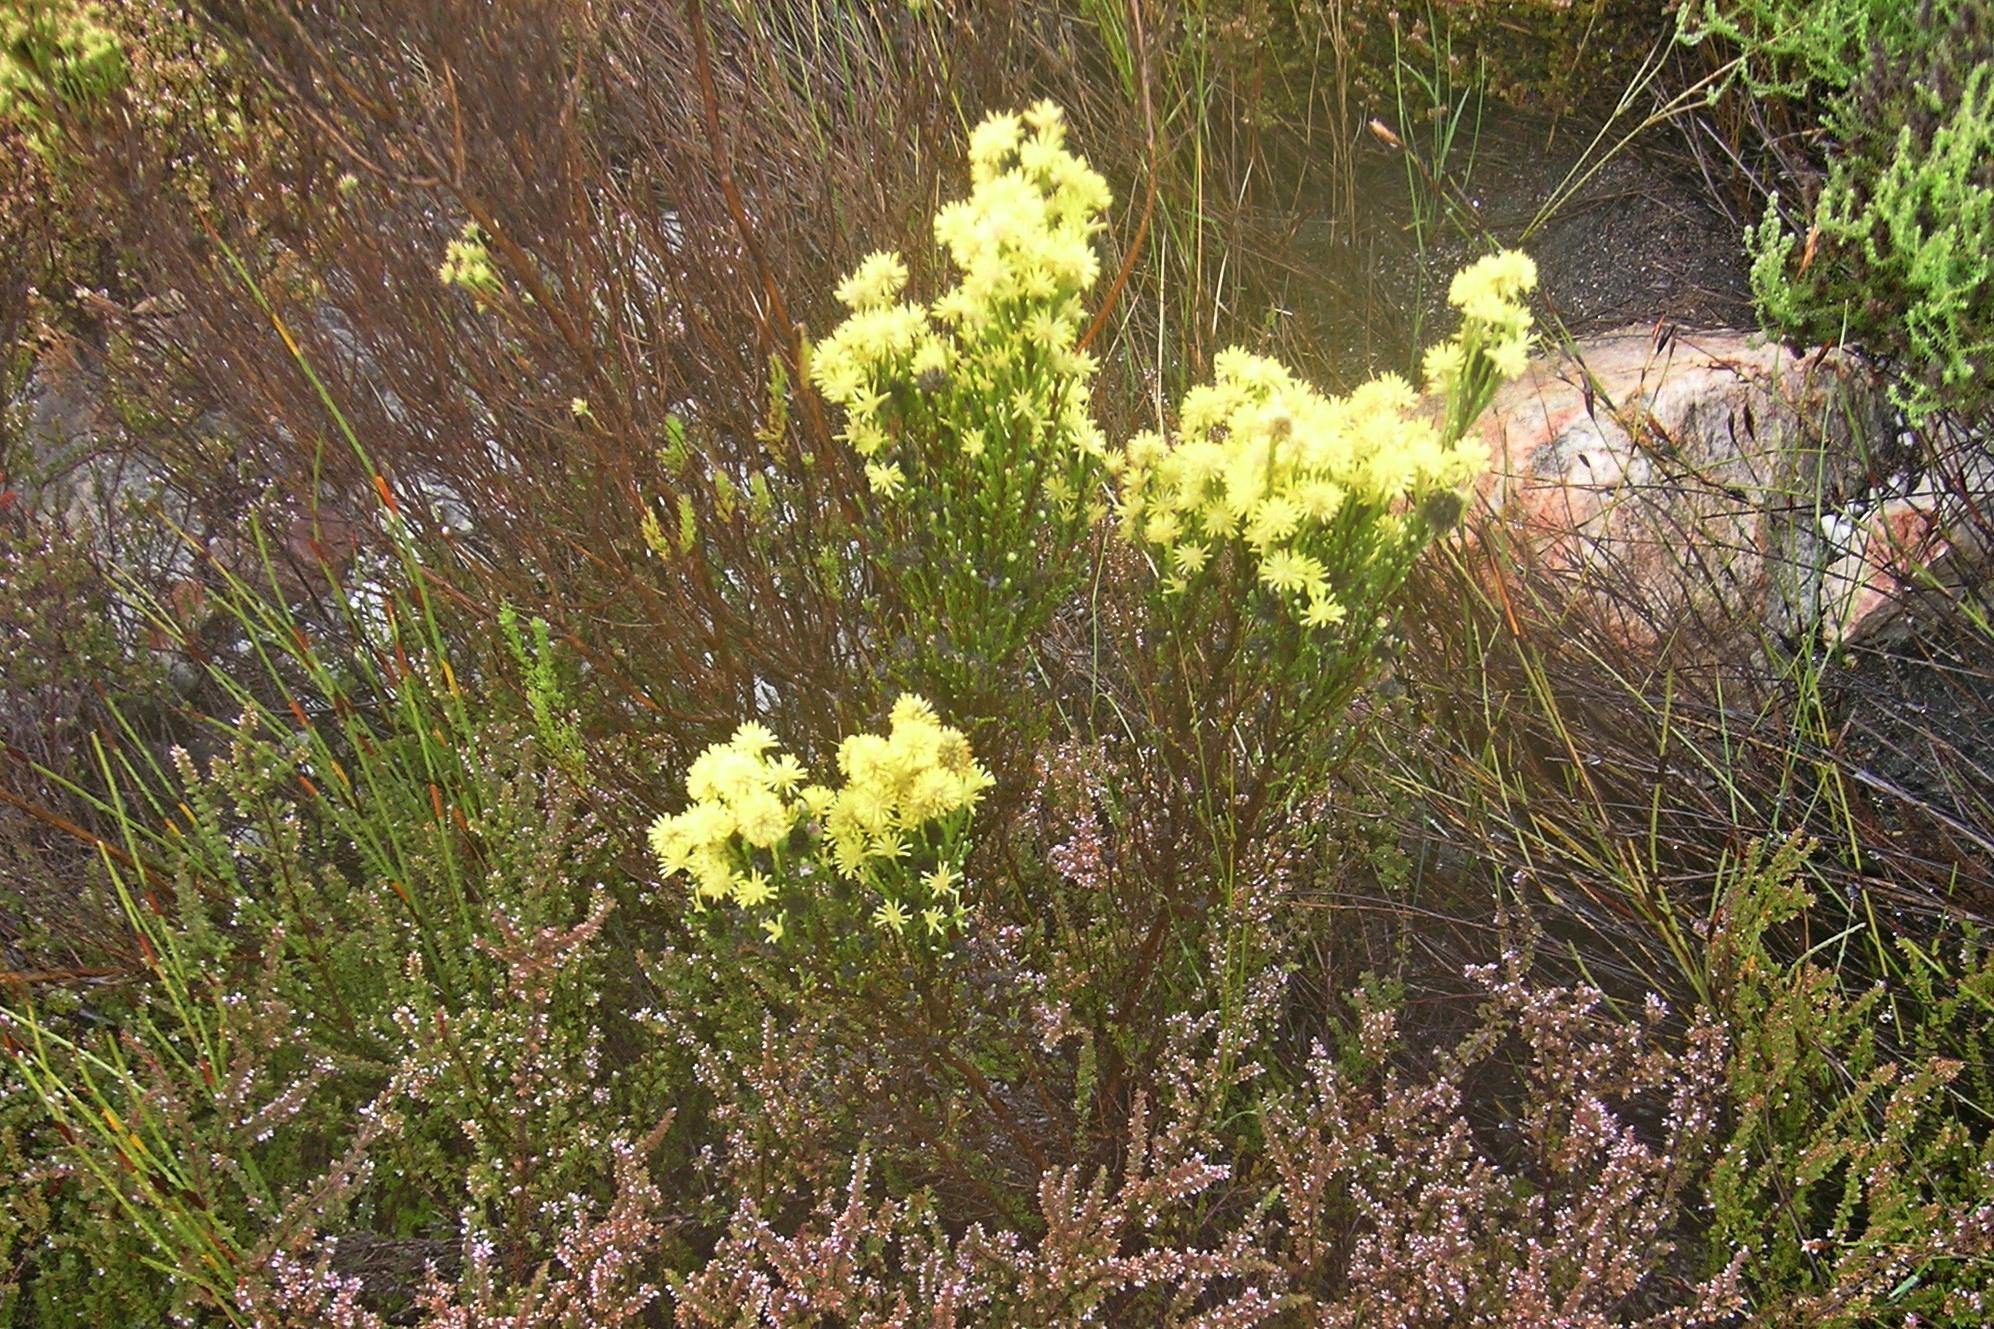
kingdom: Plantae
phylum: Tracheophyta
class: Magnoliopsida
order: Asterales
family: Asteraceae
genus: Seriphium
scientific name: Seriphium spirale
